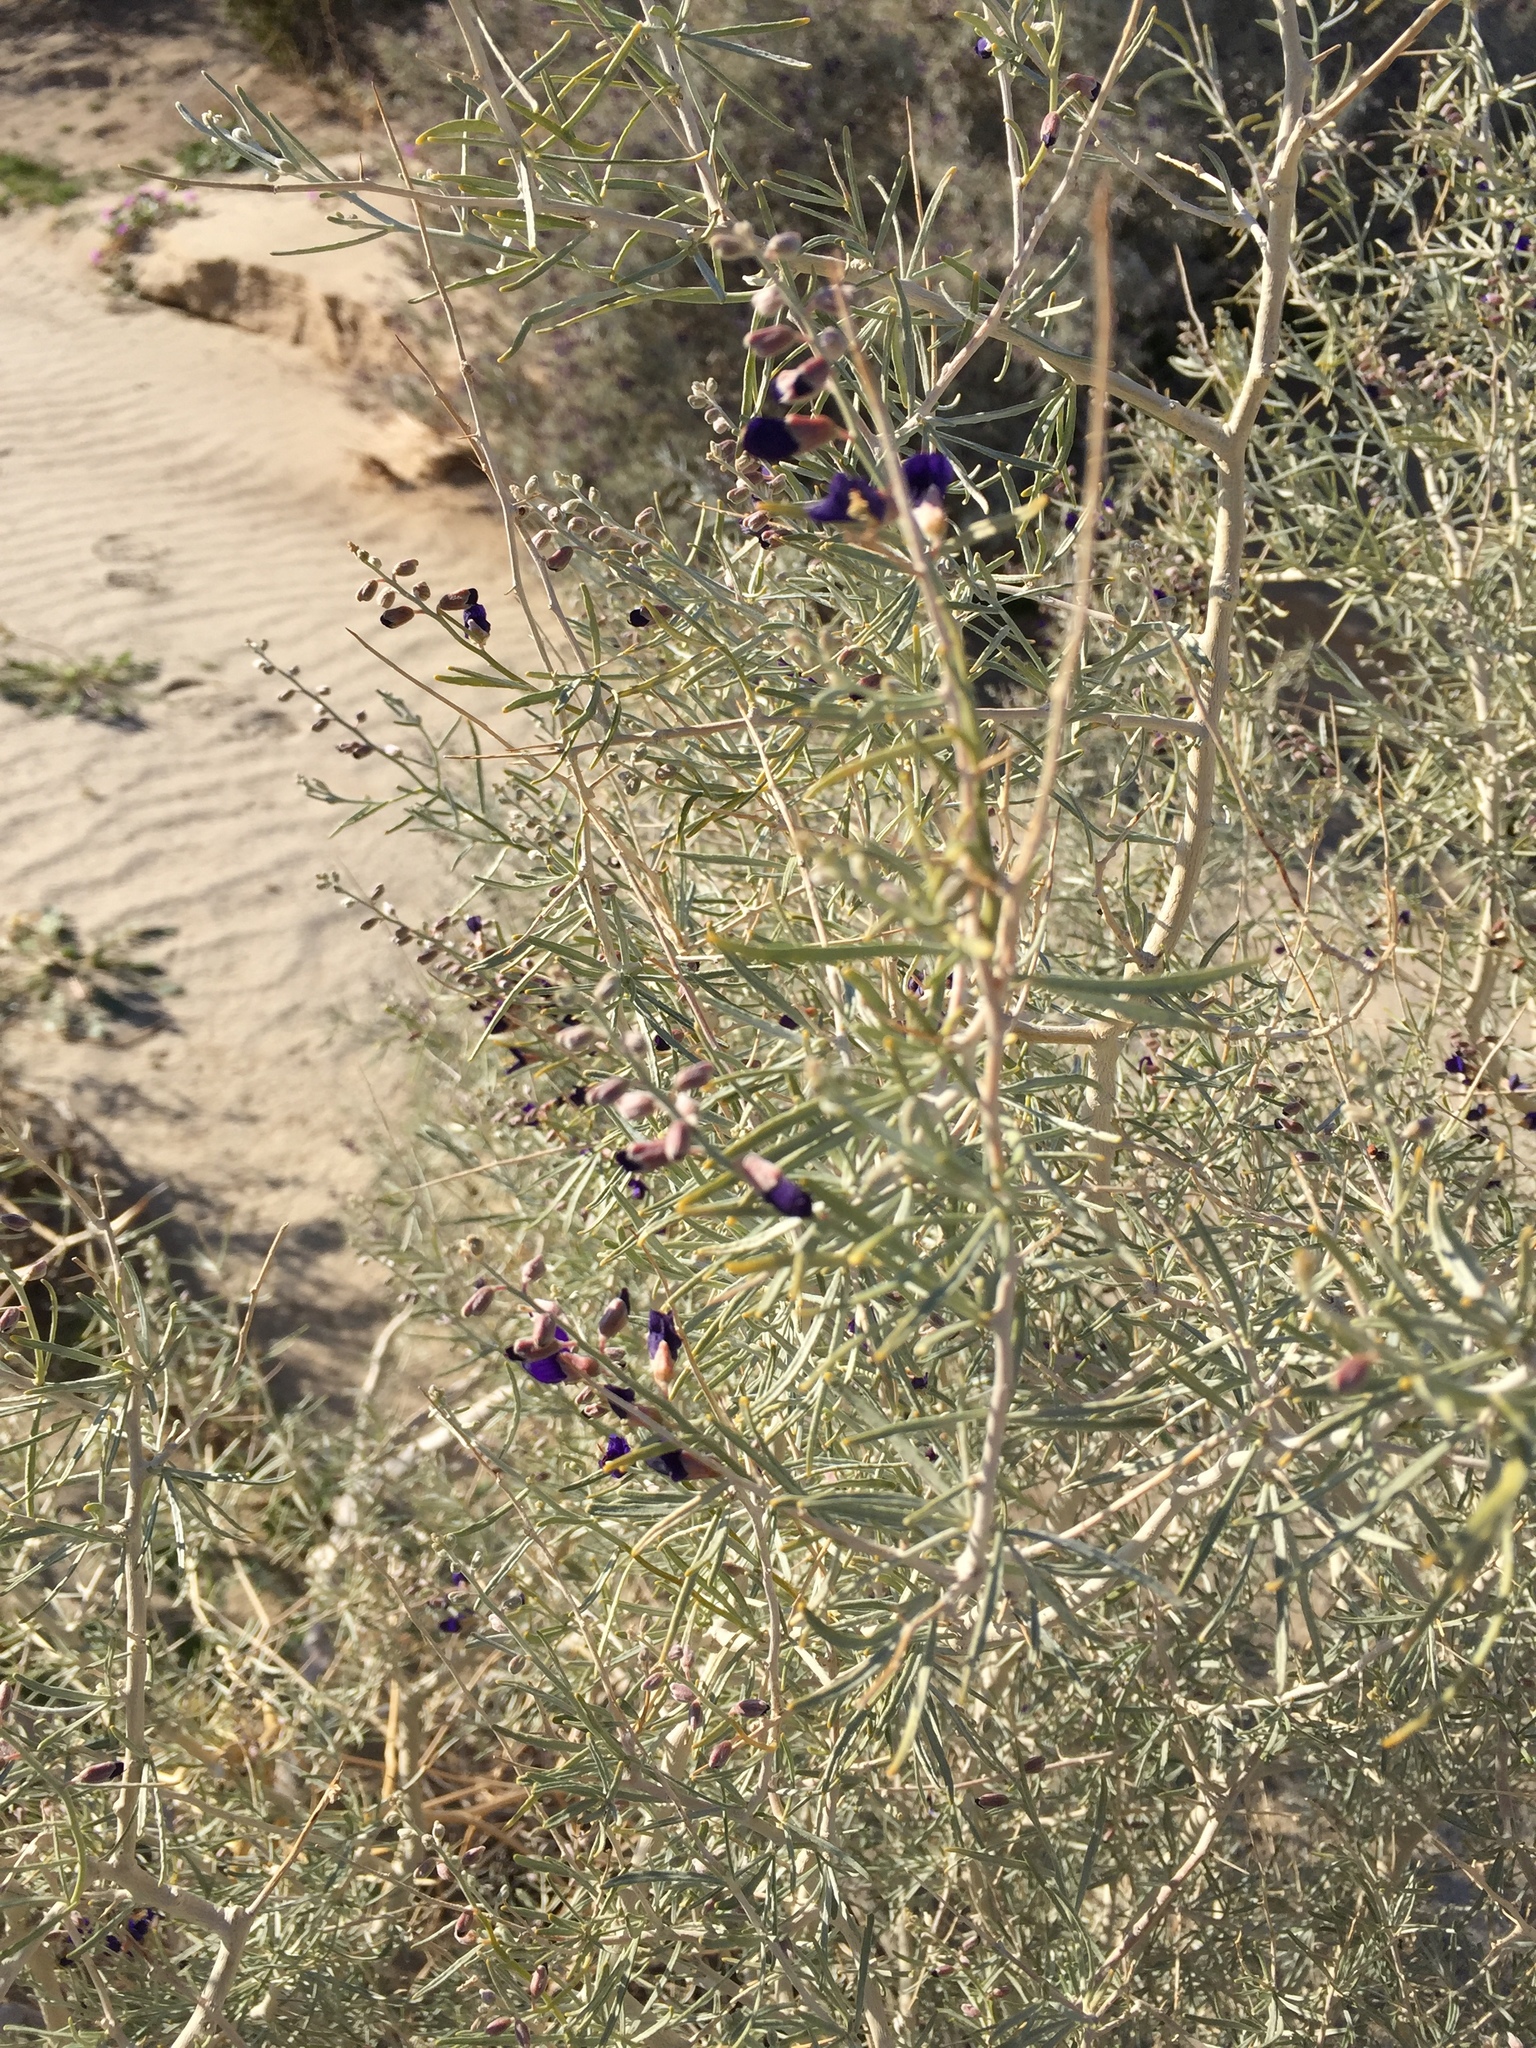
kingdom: Plantae
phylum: Tracheophyta
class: Magnoliopsida
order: Fabales
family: Fabaceae
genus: Psorothamnus
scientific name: Psorothamnus schottii
